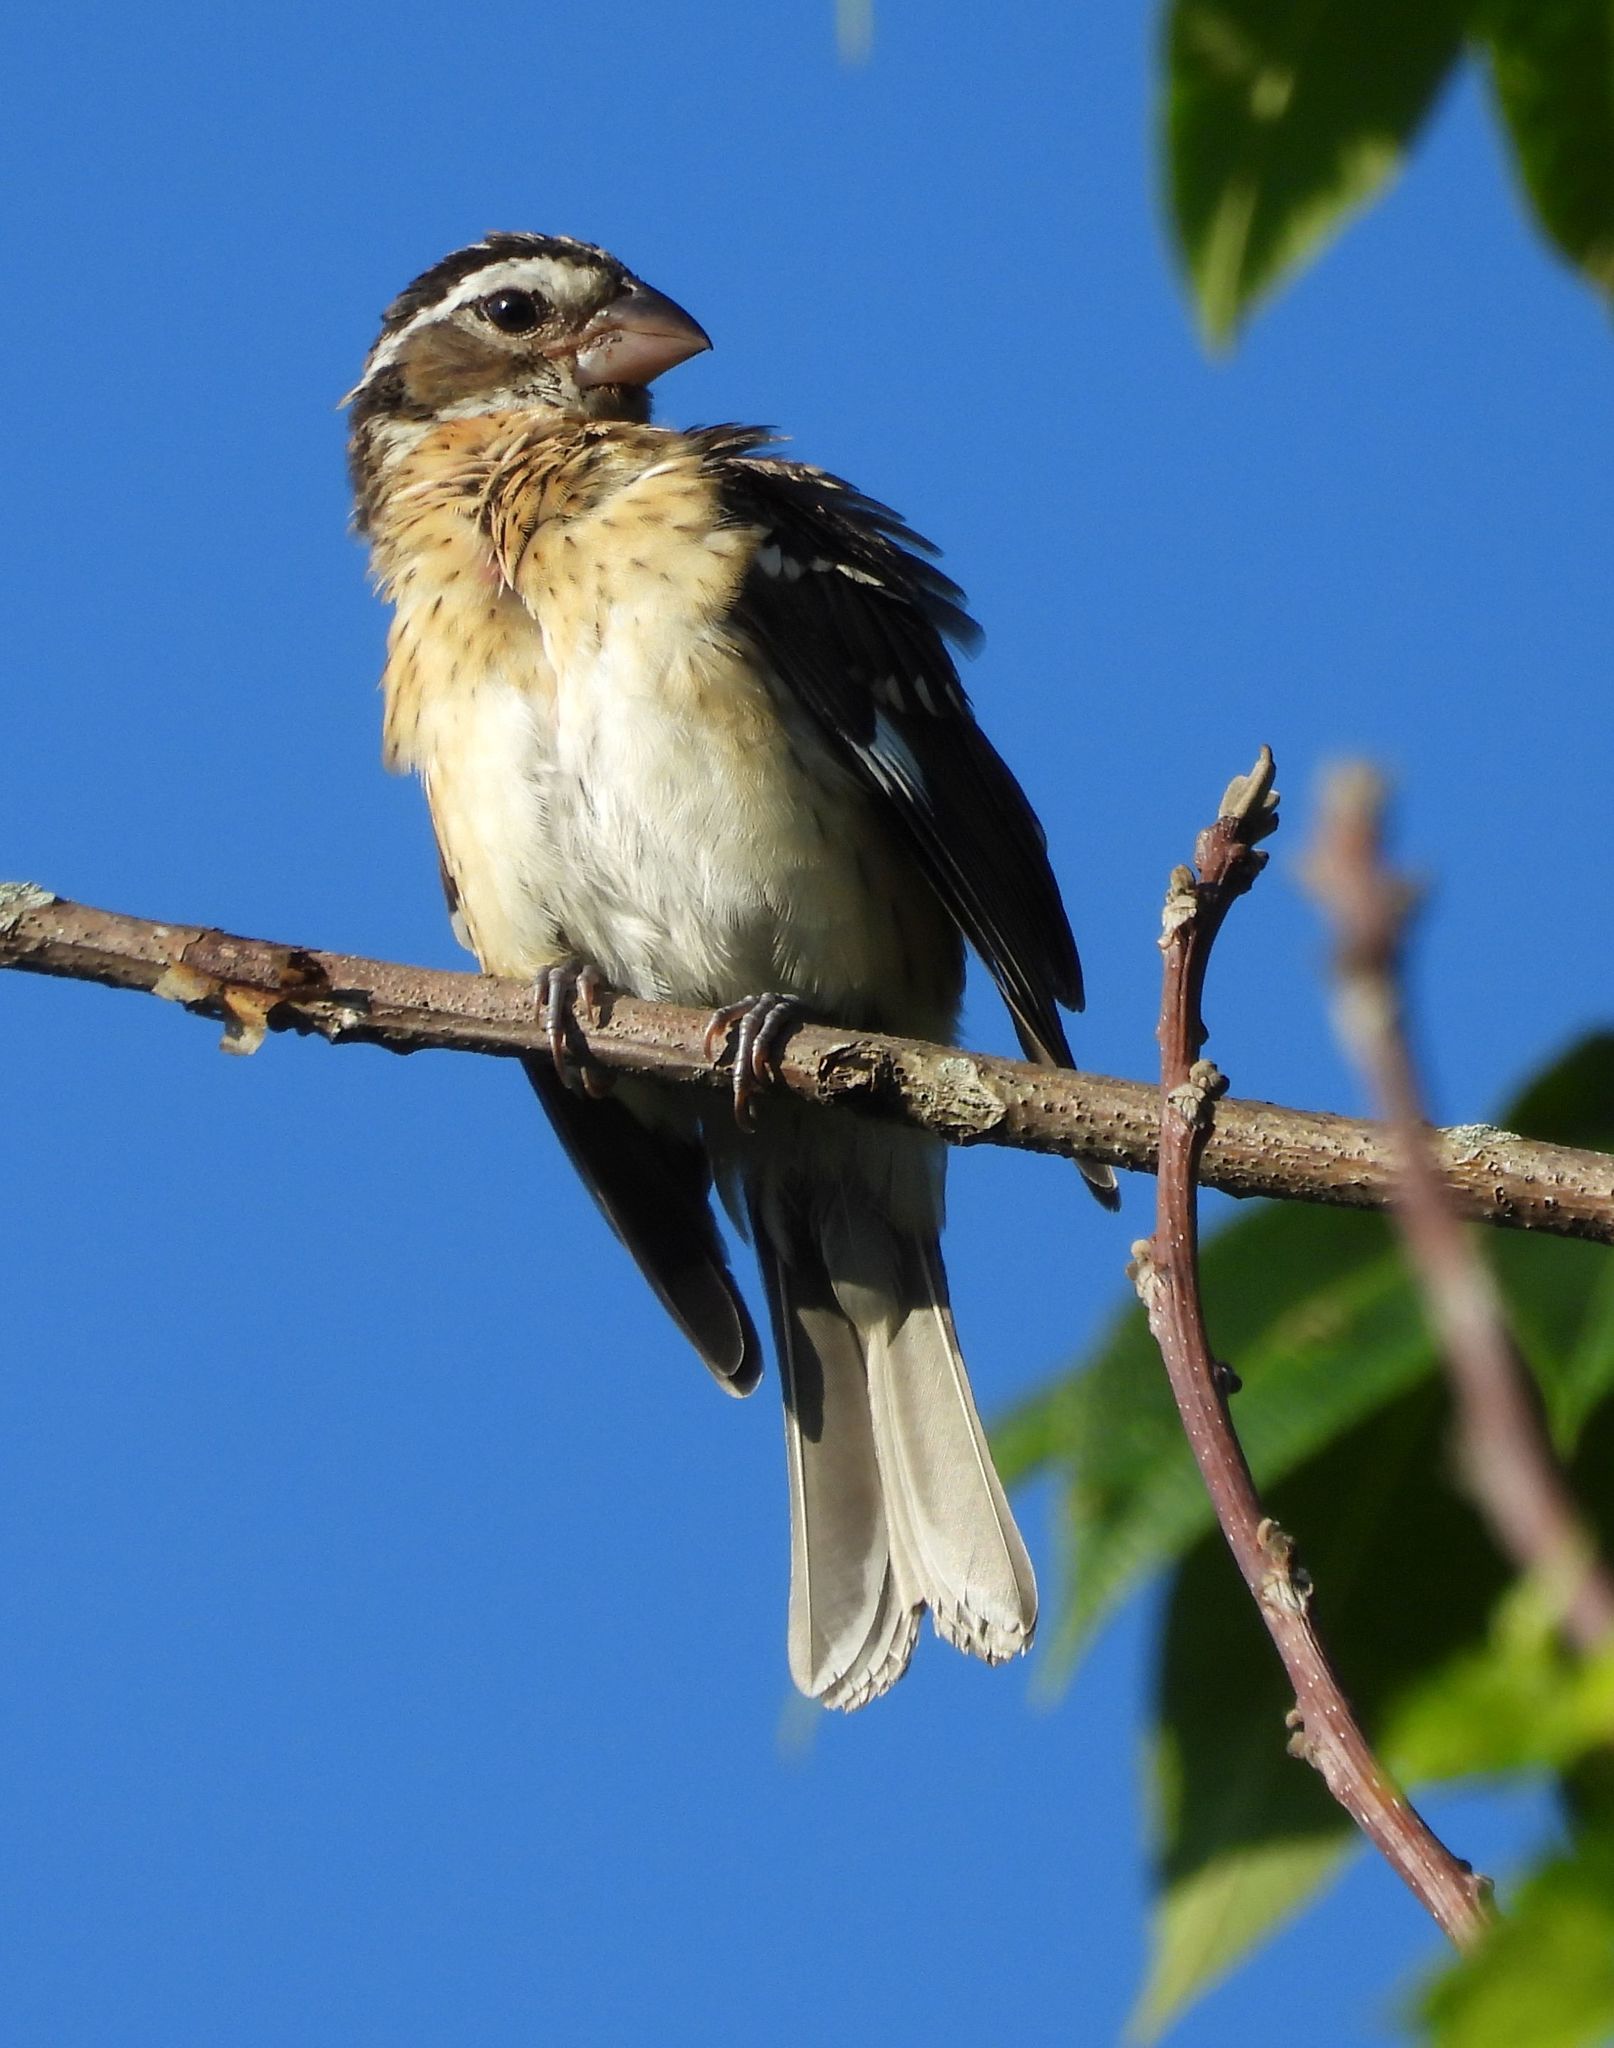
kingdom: Animalia
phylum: Chordata
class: Aves
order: Passeriformes
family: Cardinalidae
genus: Pheucticus
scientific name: Pheucticus ludovicianus
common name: Rose-breasted grosbeak
